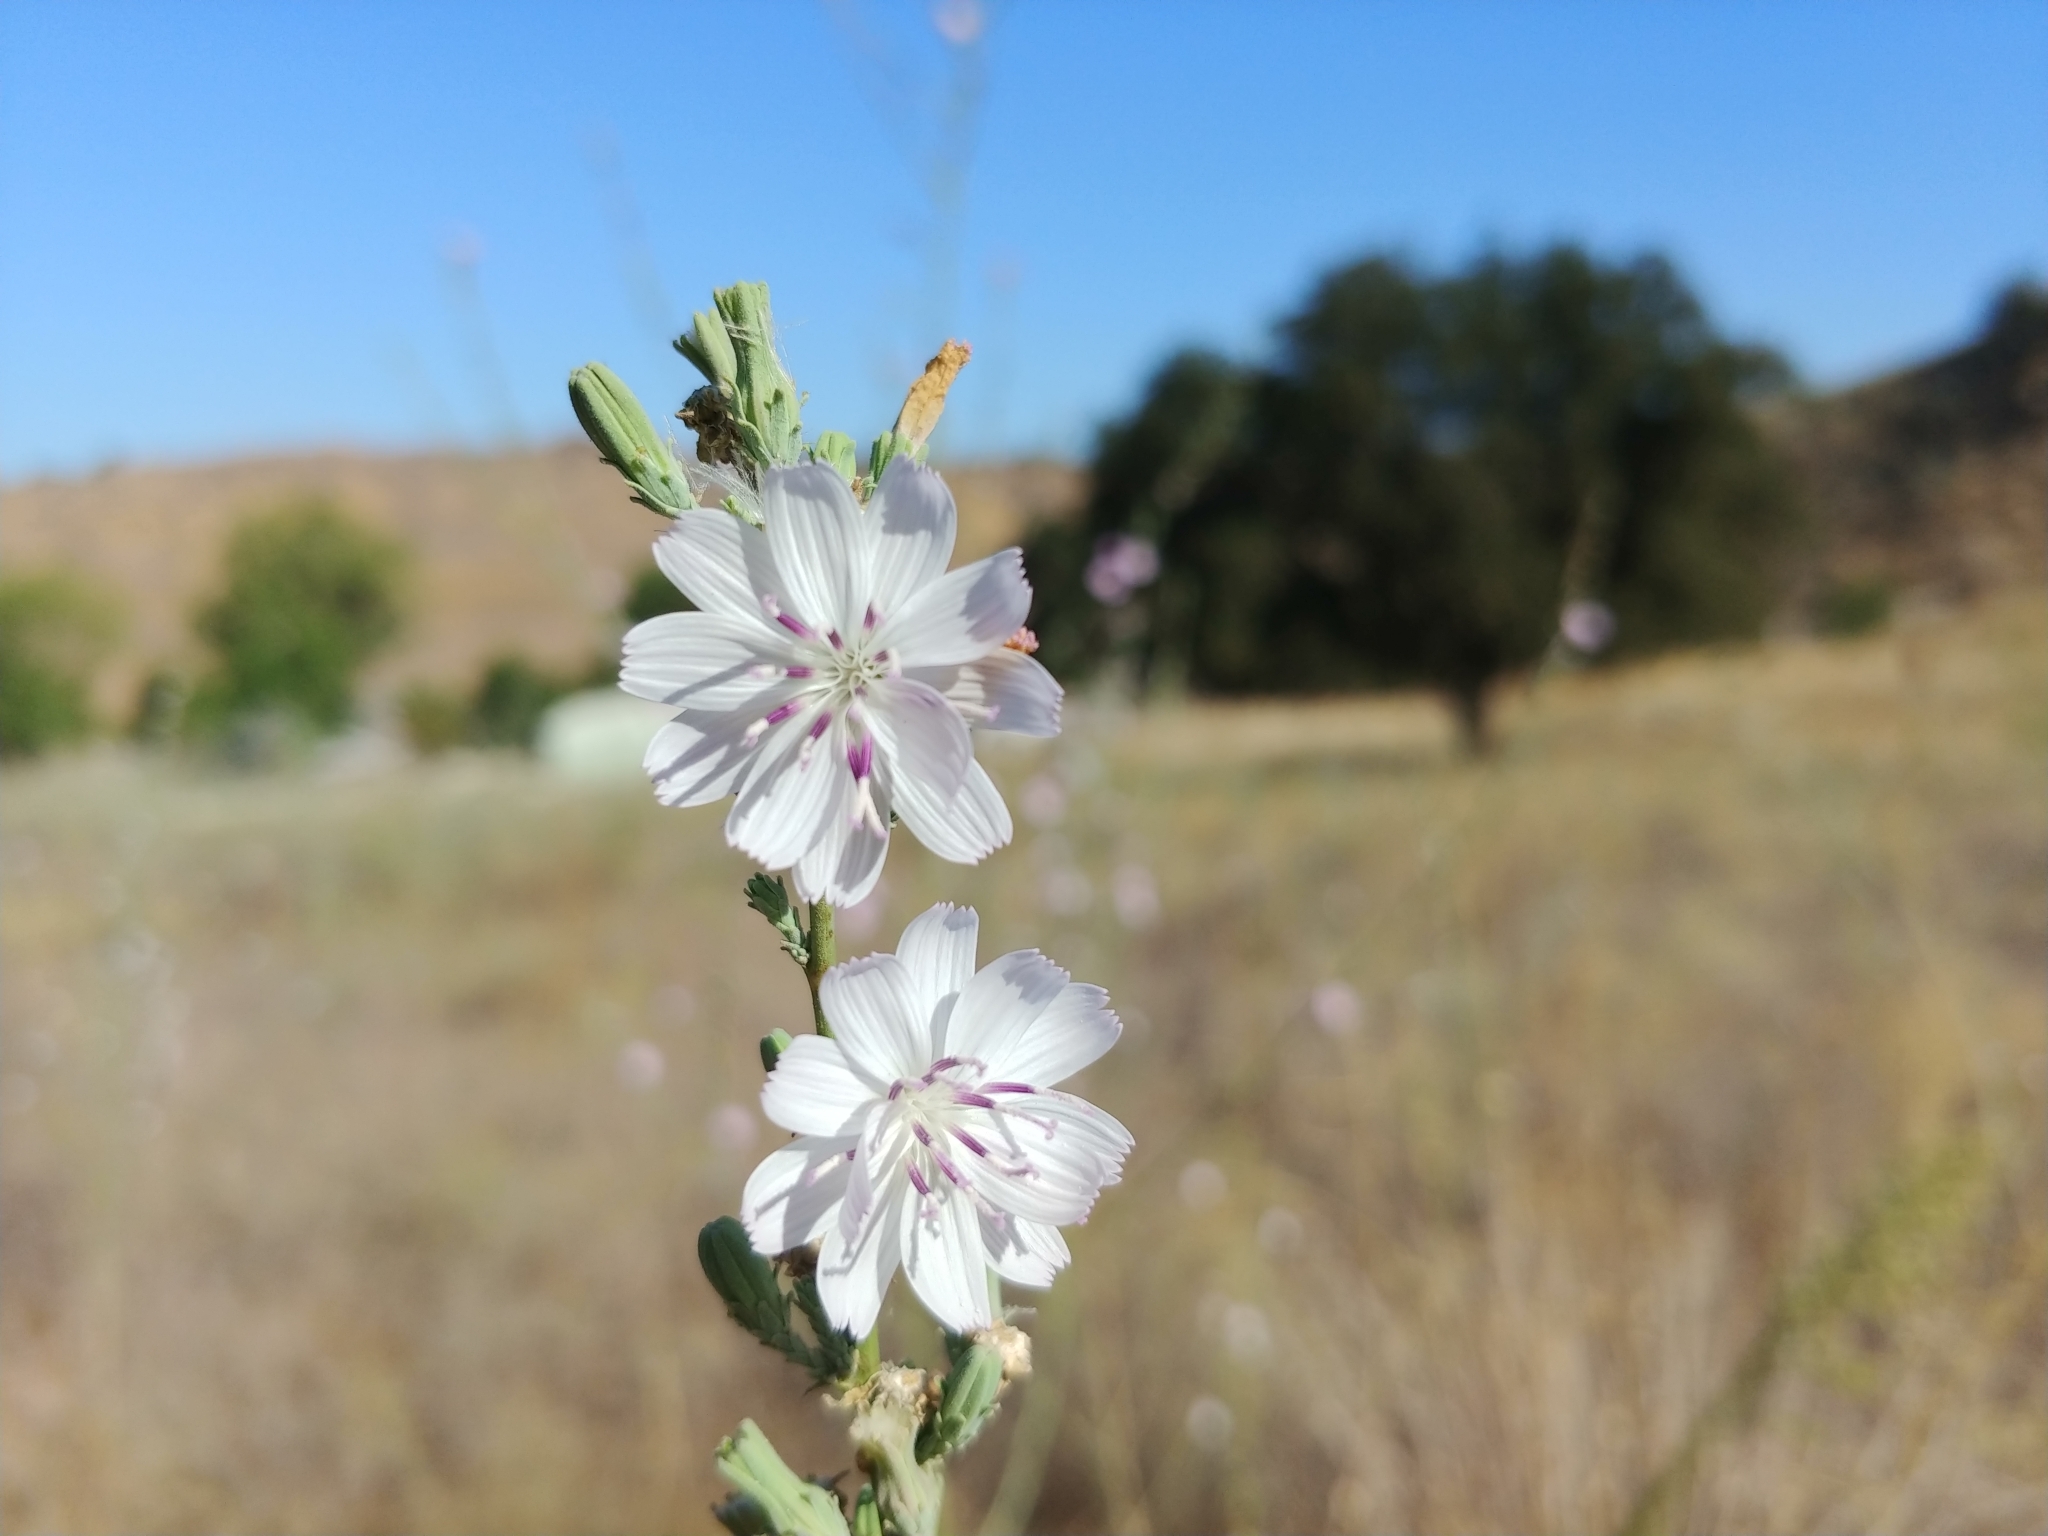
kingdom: Plantae
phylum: Tracheophyta
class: Magnoliopsida
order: Asterales
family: Asteraceae
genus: Stephanomeria
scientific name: Stephanomeria diegensis
